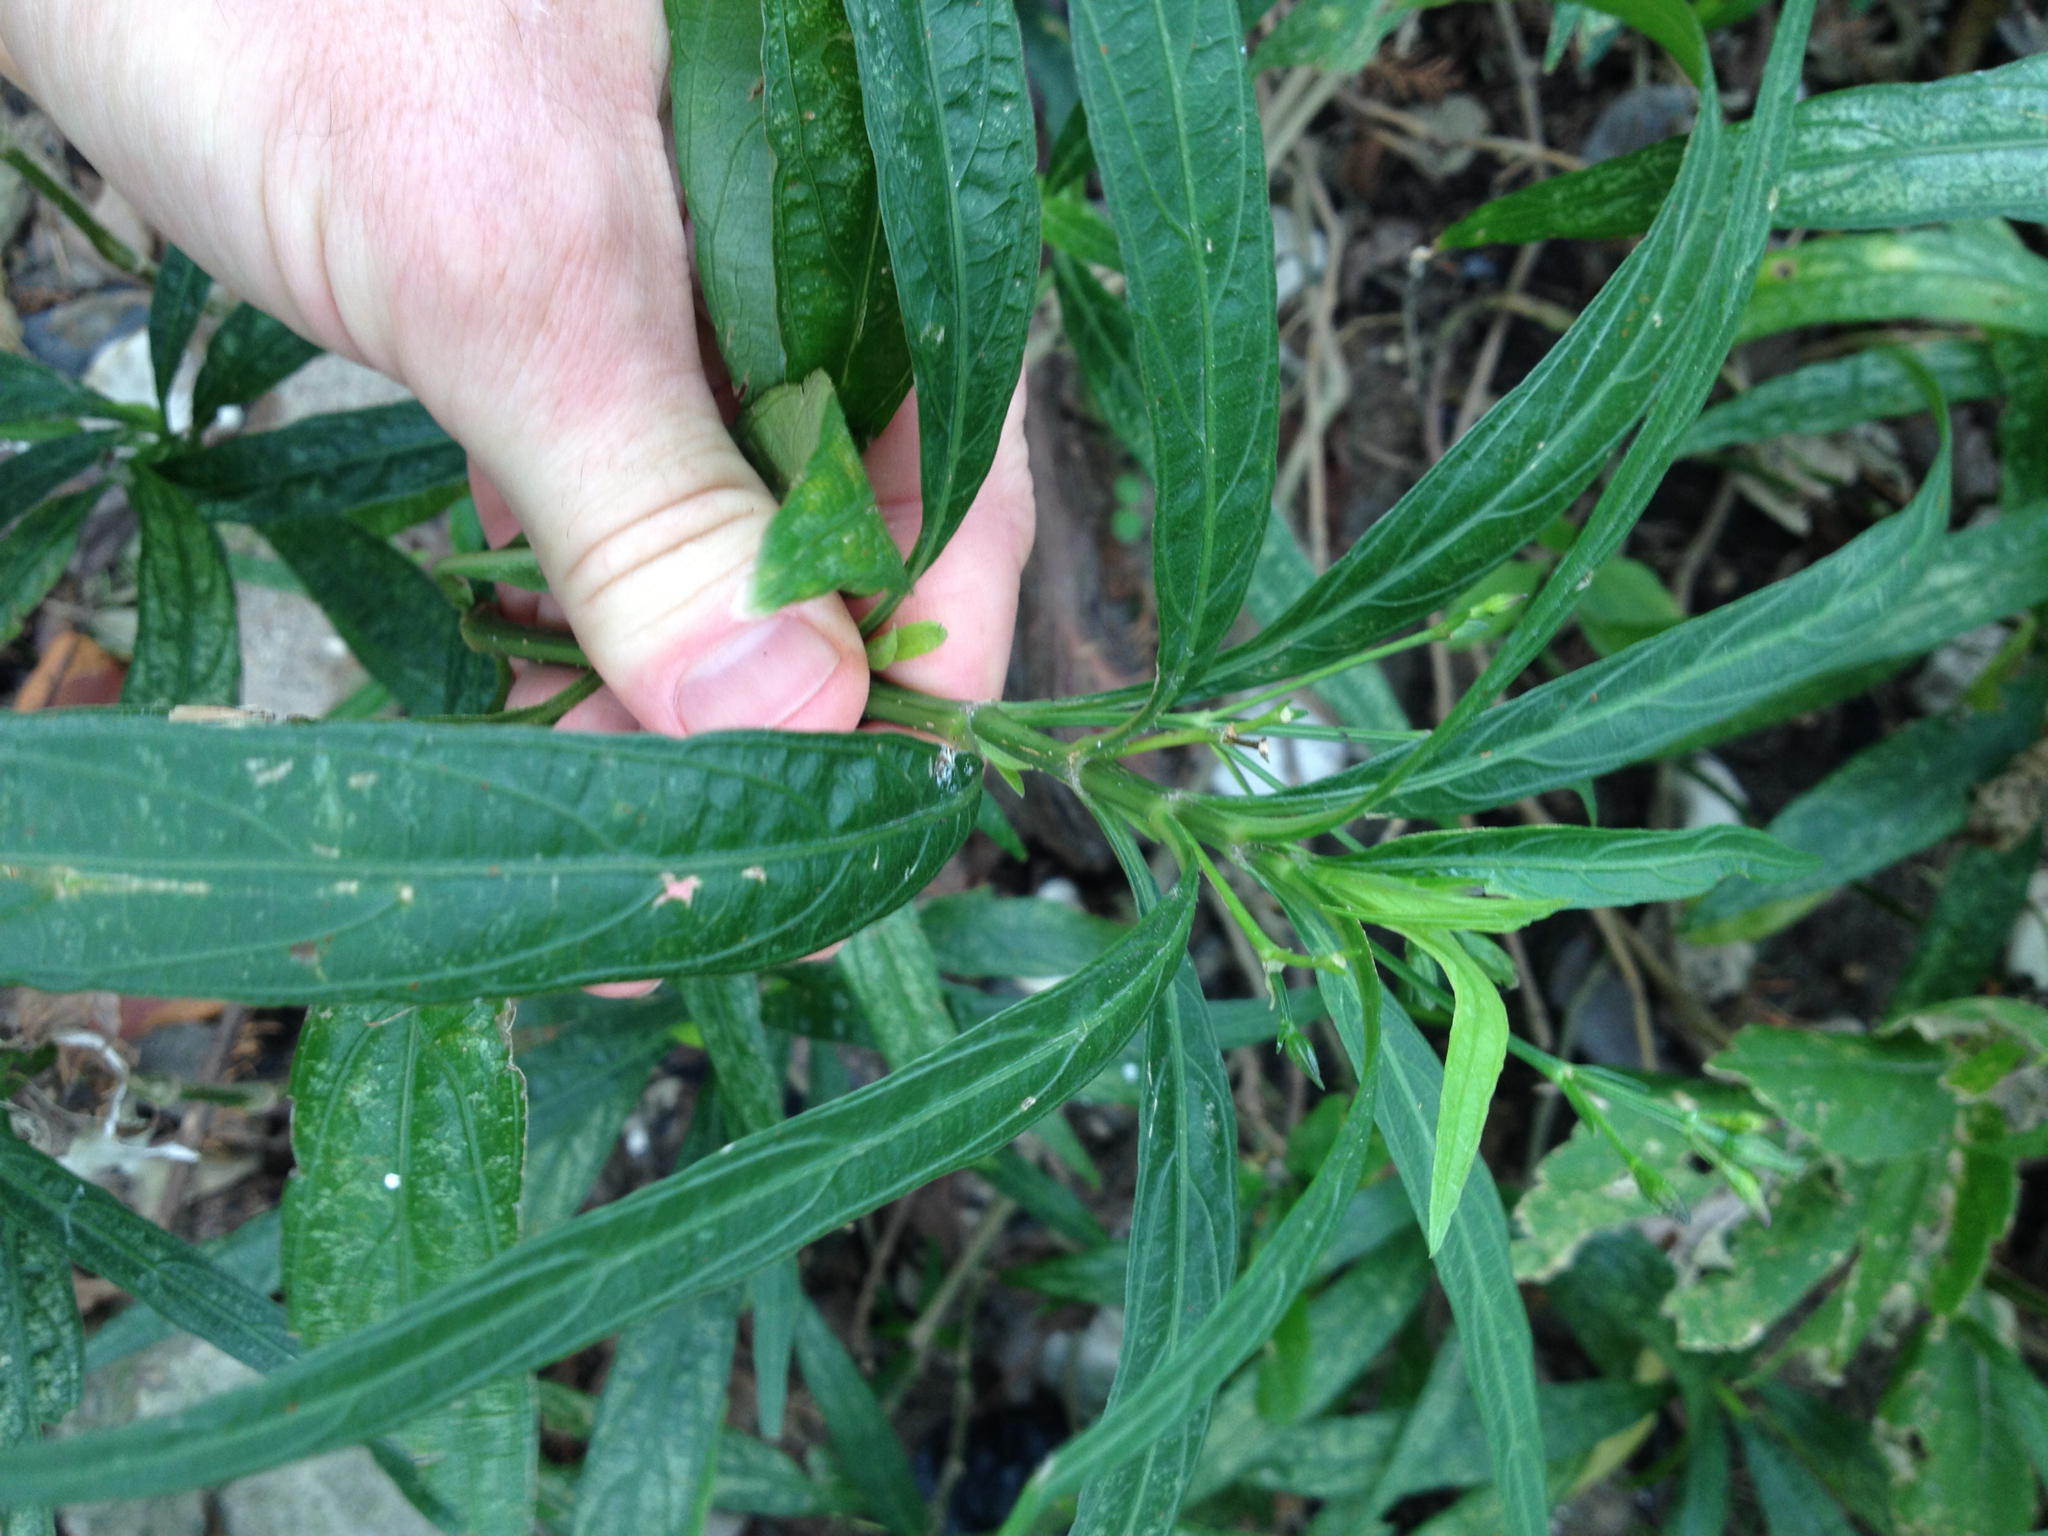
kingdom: Plantae
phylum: Tracheophyta
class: Magnoliopsida
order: Lamiales
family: Acanthaceae
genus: Ruellia
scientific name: Ruellia simplex
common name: Softseed wild petunia
